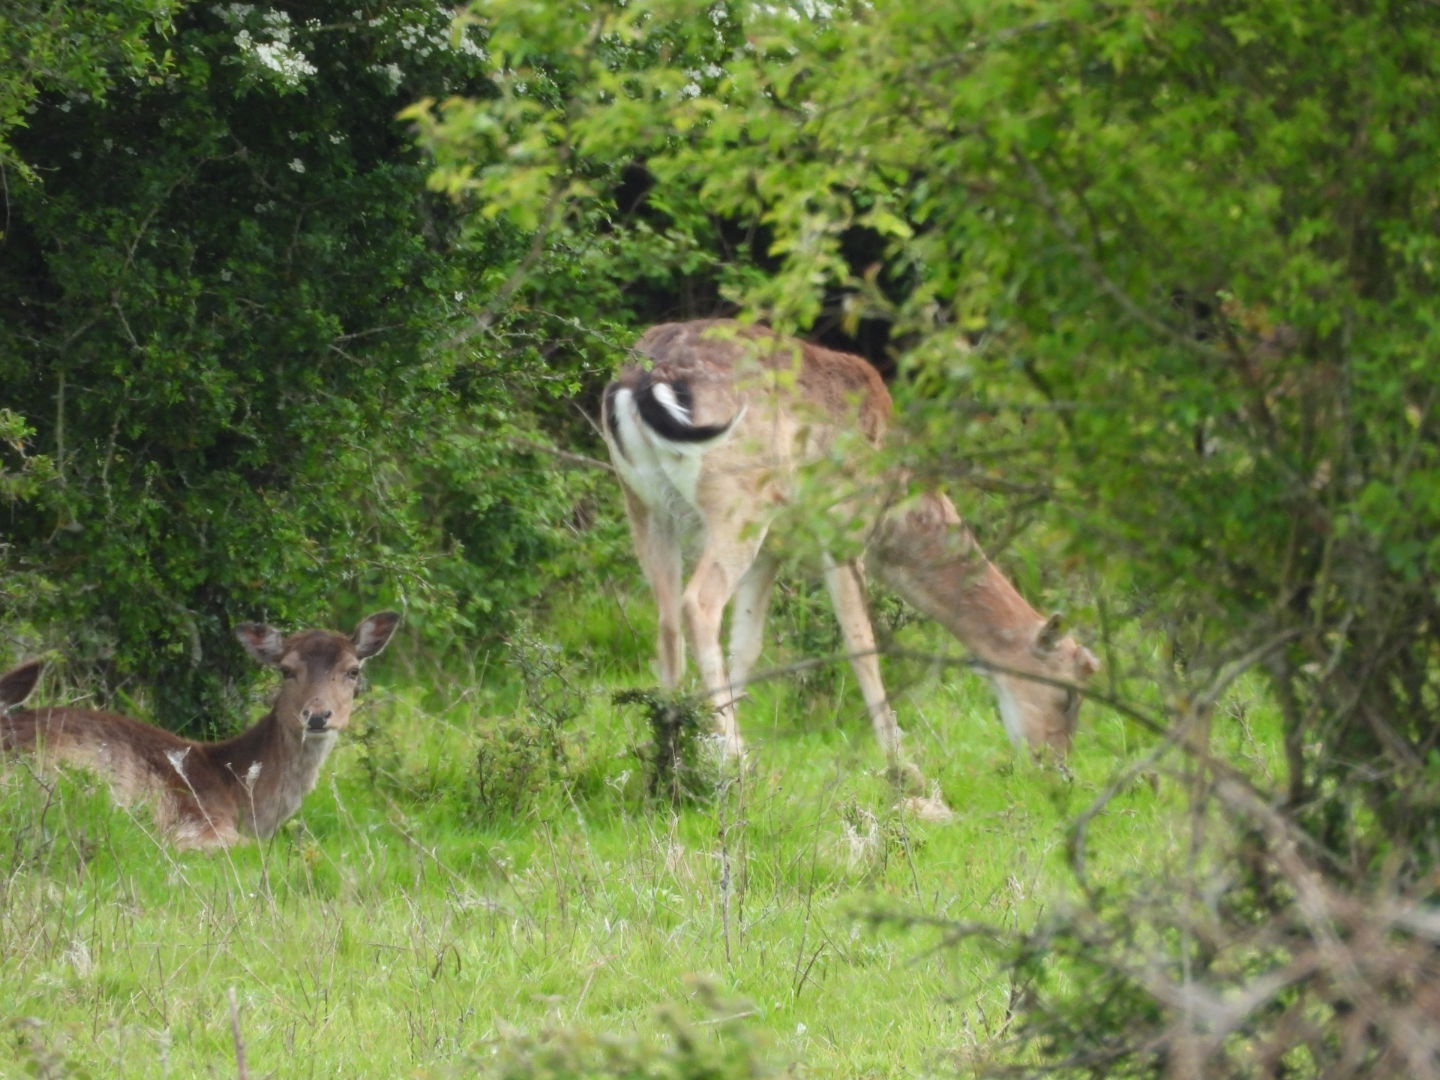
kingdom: Animalia
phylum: Chordata
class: Mammalia
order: Artiodactyla
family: Cervidae
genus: Dama
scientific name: Dama dama
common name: Fallow deer
